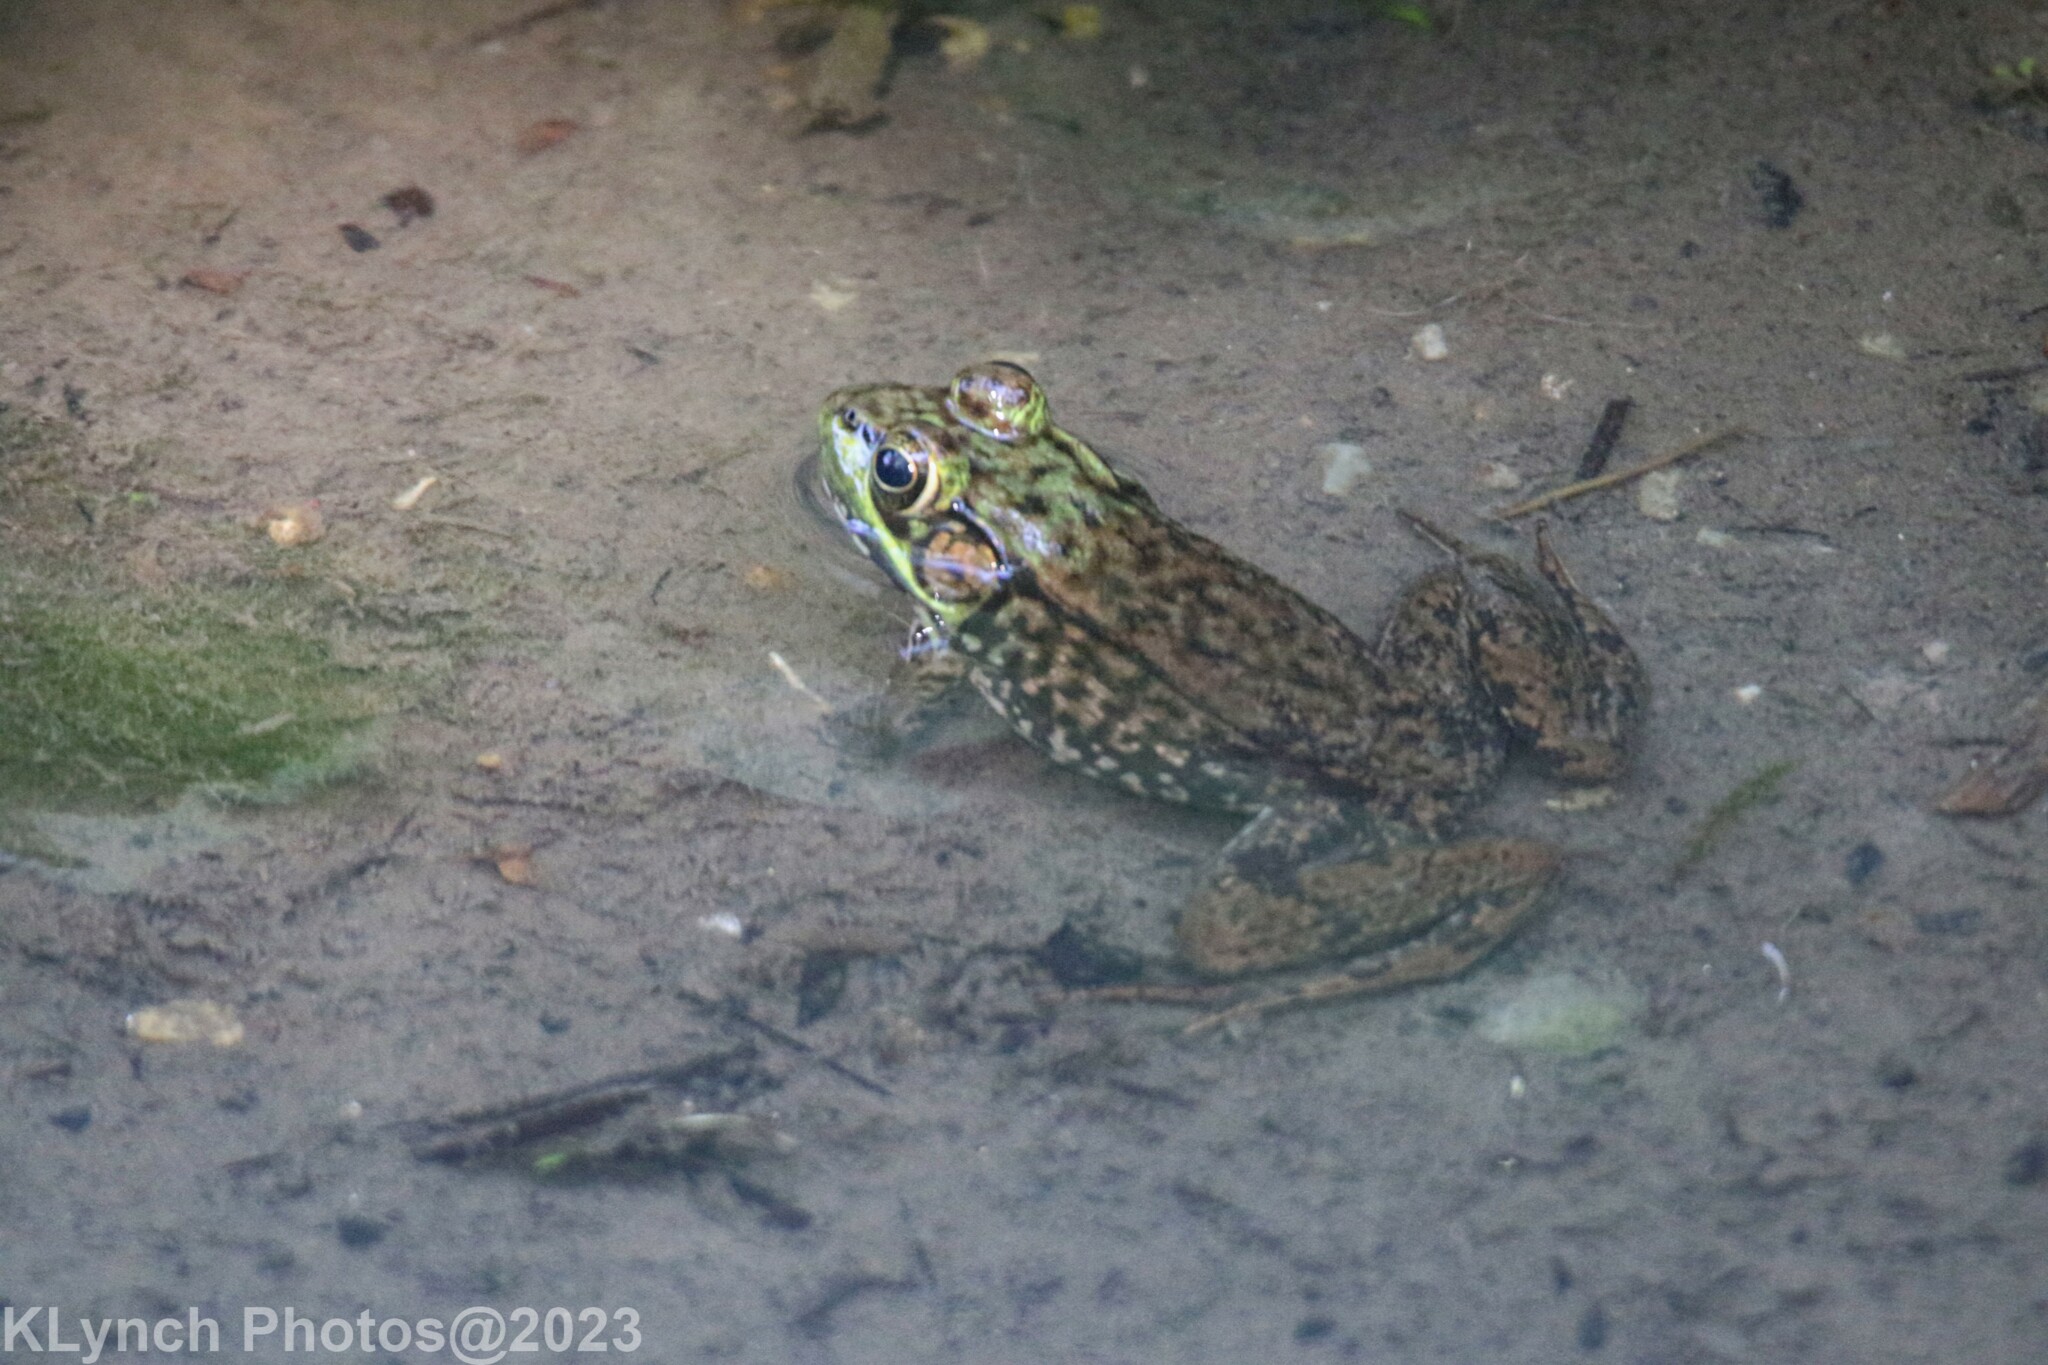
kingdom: Animalia
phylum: Chordata
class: Amphibia
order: Anura
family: Ranidae
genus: Lithobates
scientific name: Lithobates clamitans
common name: Green frog
